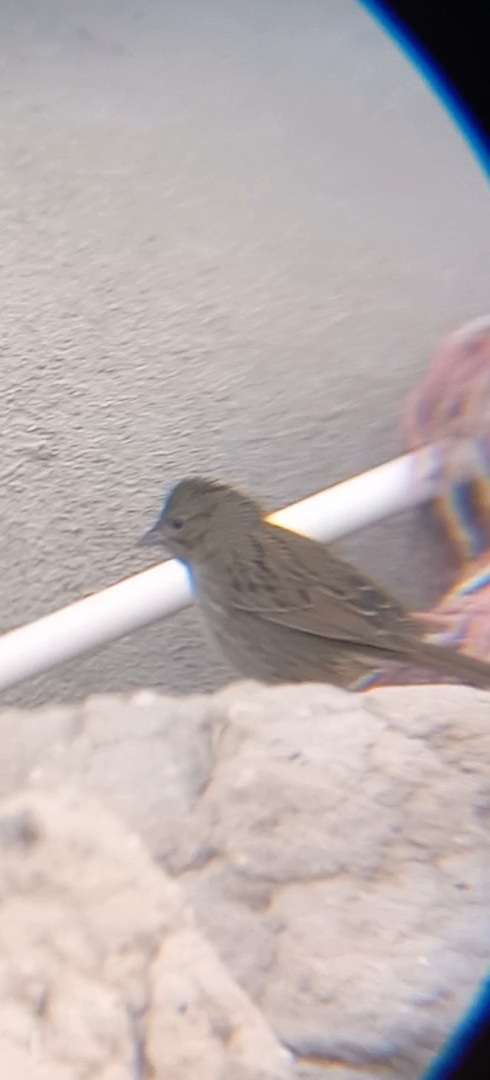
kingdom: Animalia
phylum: Chordata
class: Aves
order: Passeriformes
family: Passerellidae
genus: Melospiza
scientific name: Melospiza lincolnii
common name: Lincoln's sparrow
